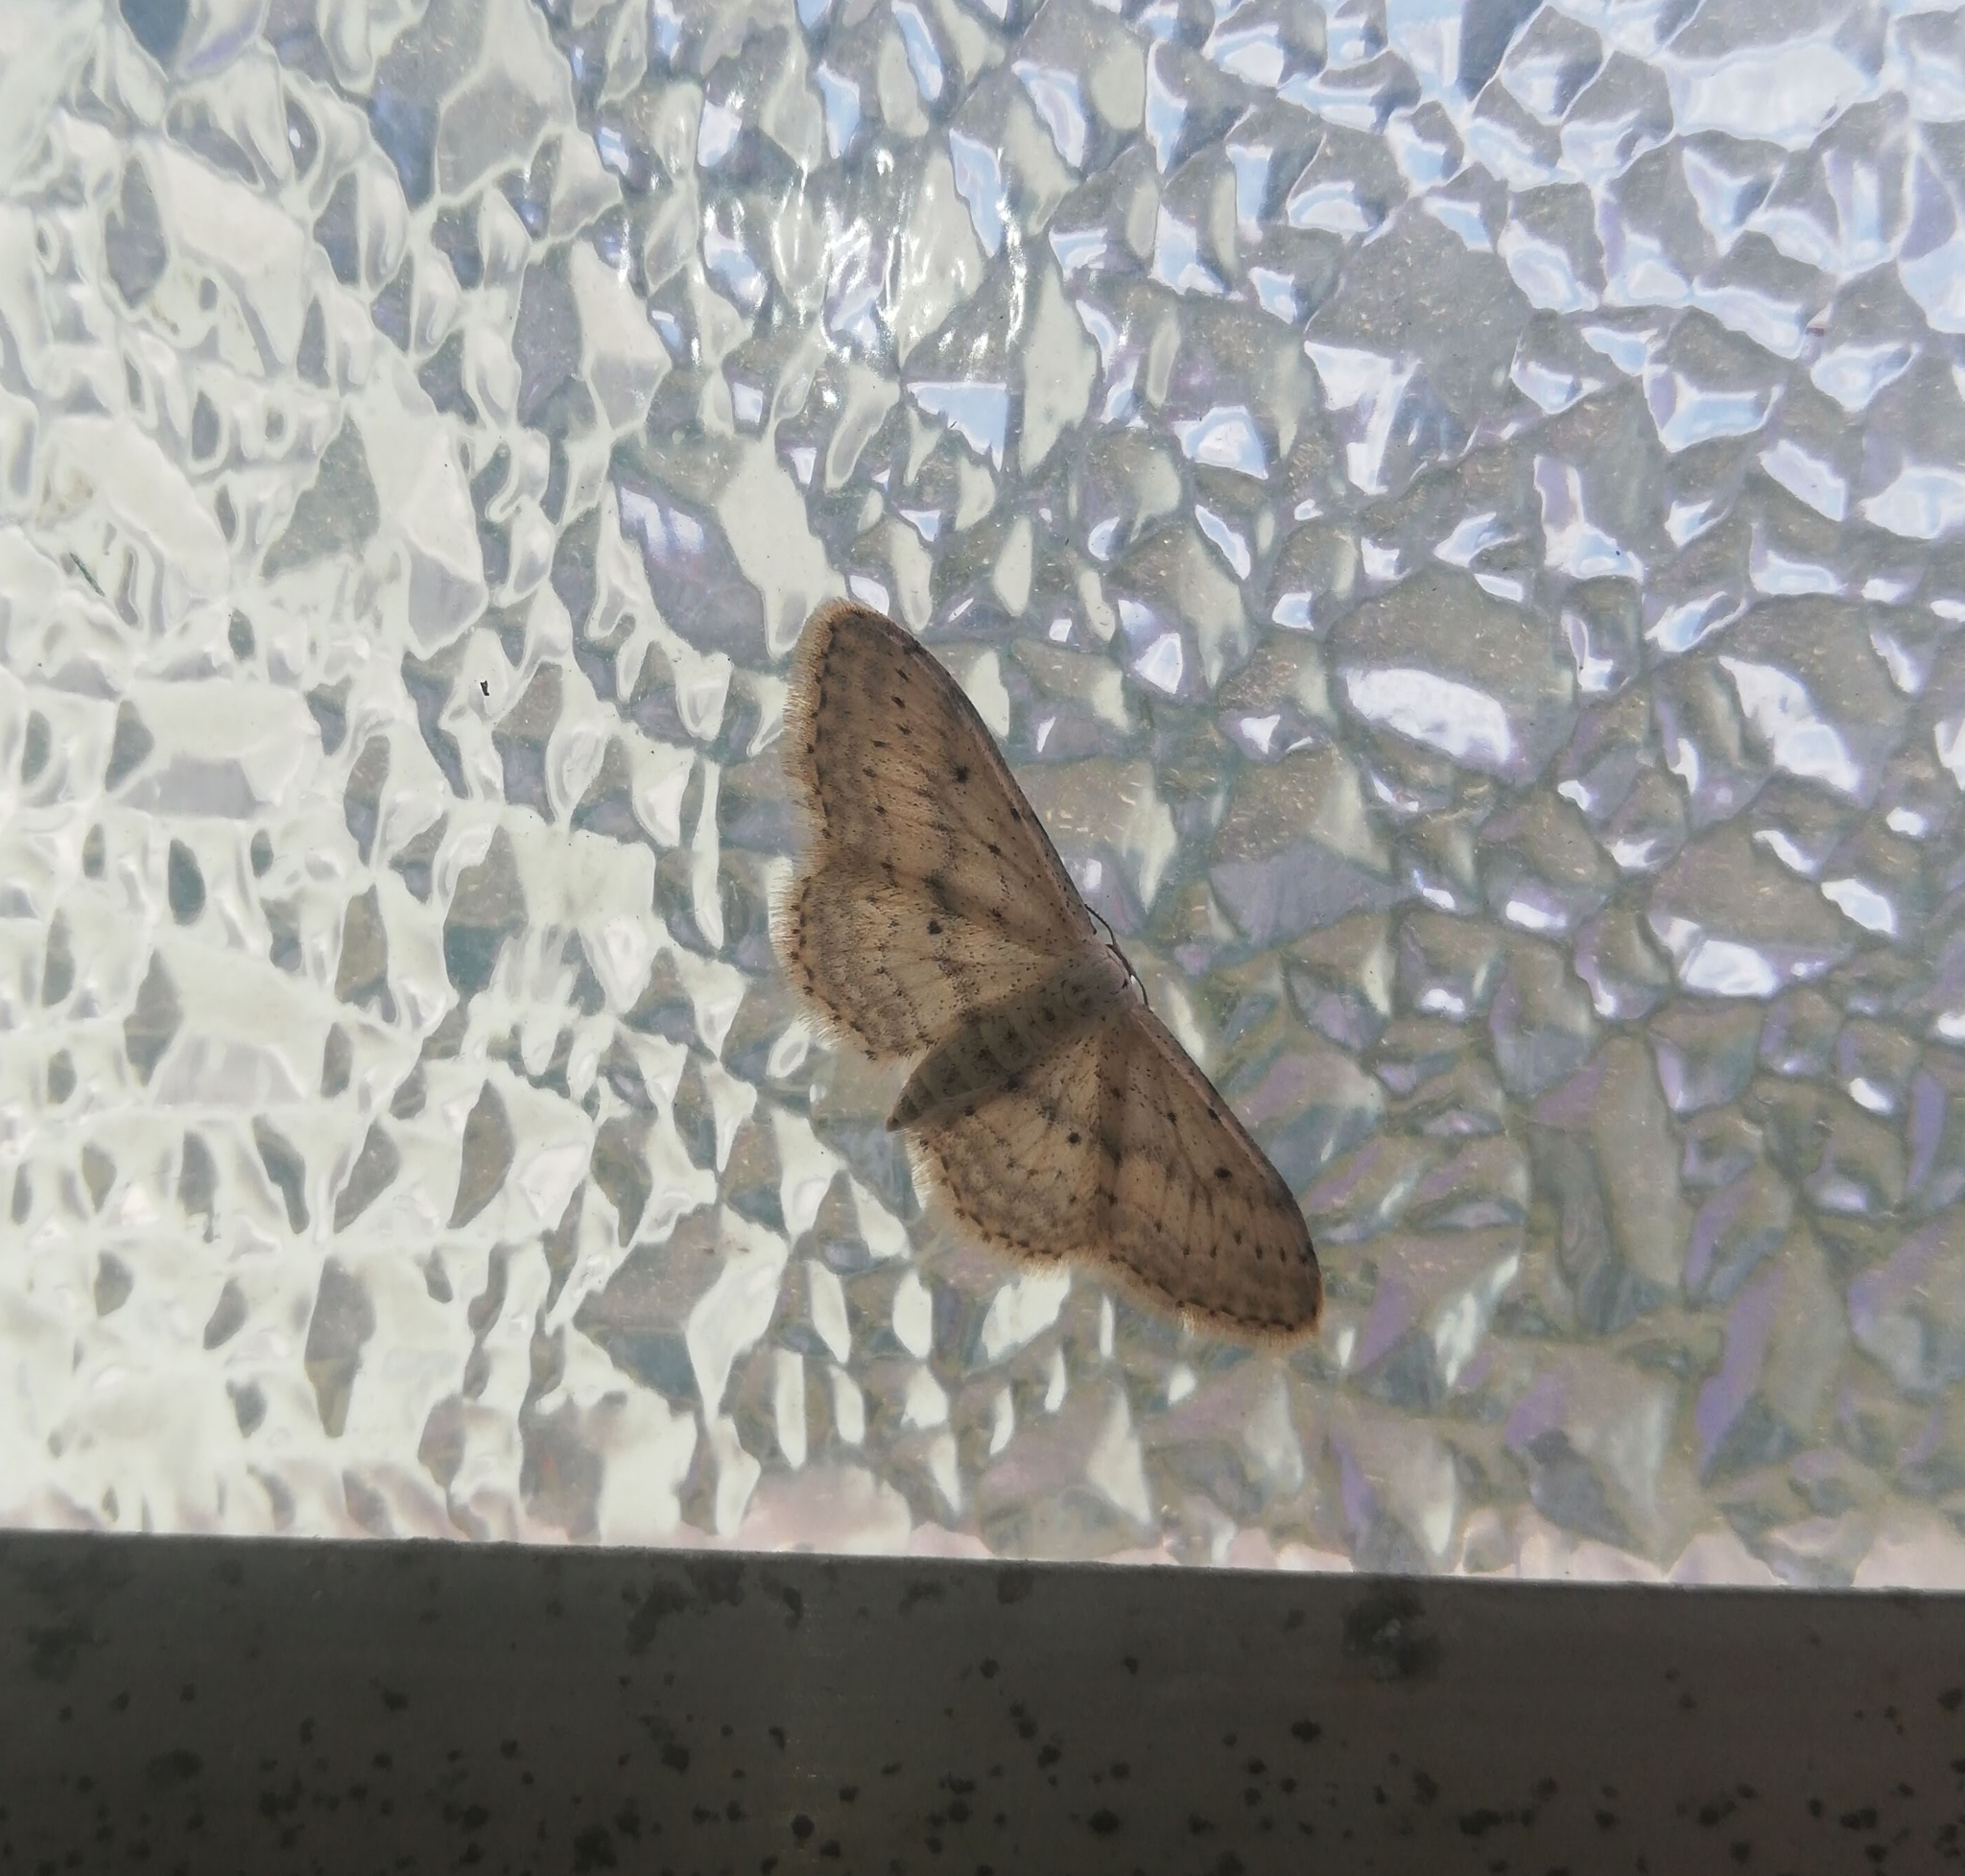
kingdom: Animalia
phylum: Arthropoda
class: Insecta
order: Lepidoptera
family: Geometridae
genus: Idaea
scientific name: Idaea seriata
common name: Small dusty wave
